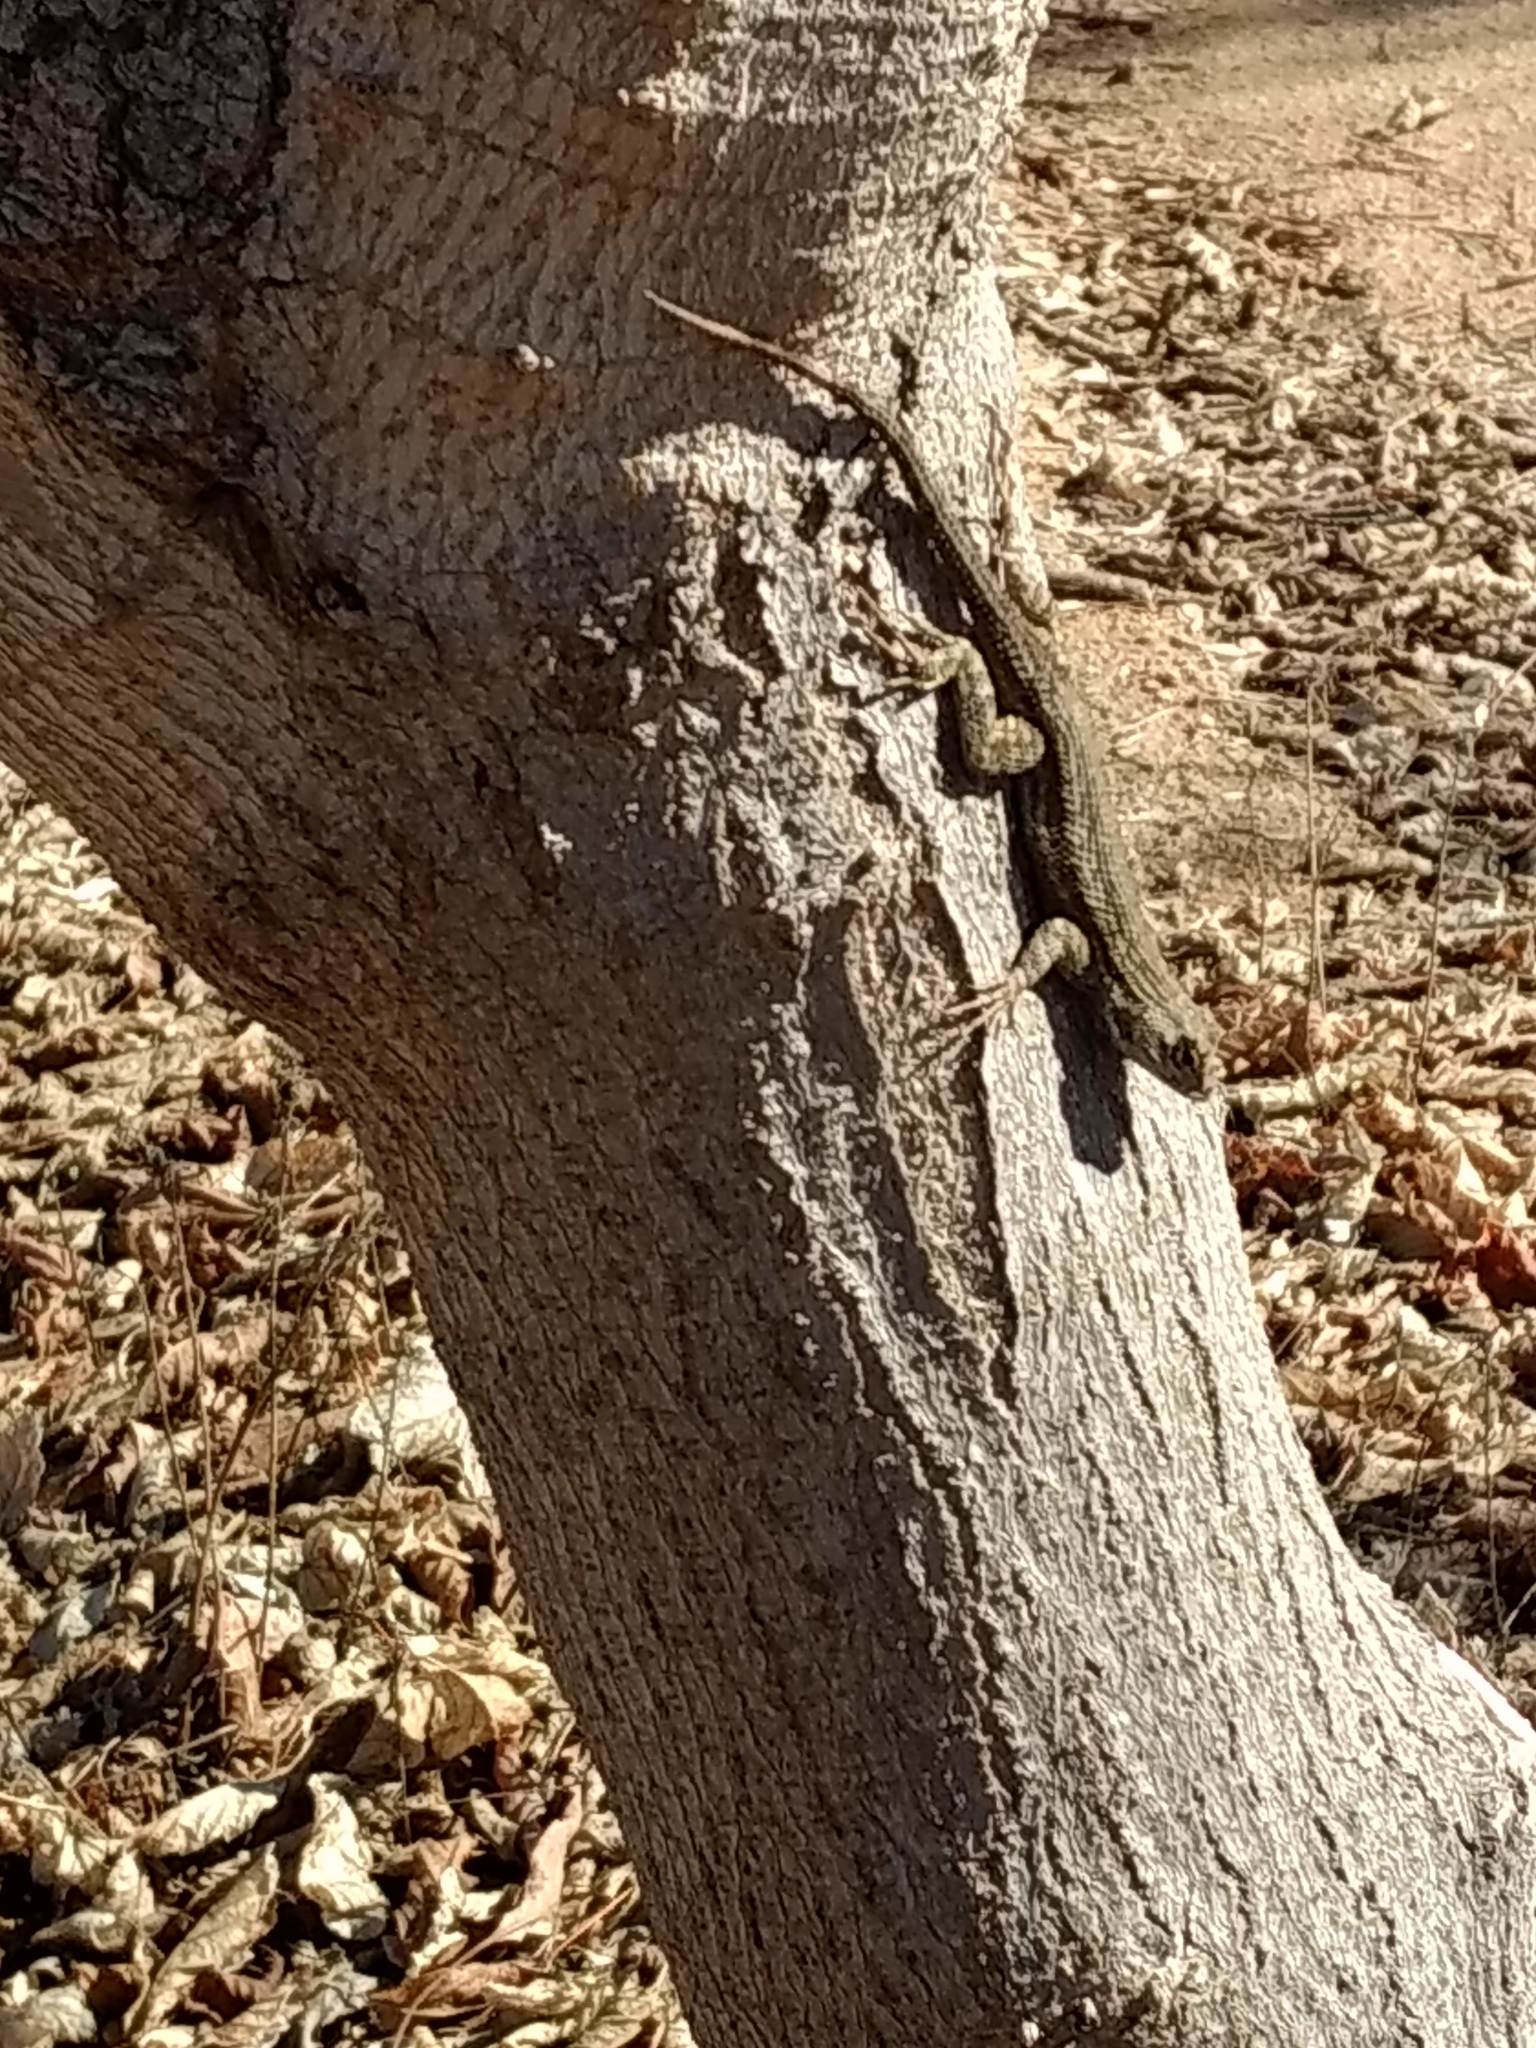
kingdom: Animalia
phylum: Chordata
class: Squamata
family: Phrynosomatidae
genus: Sceloporus
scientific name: Sceloporus occidentalis
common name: Western fence lizard
